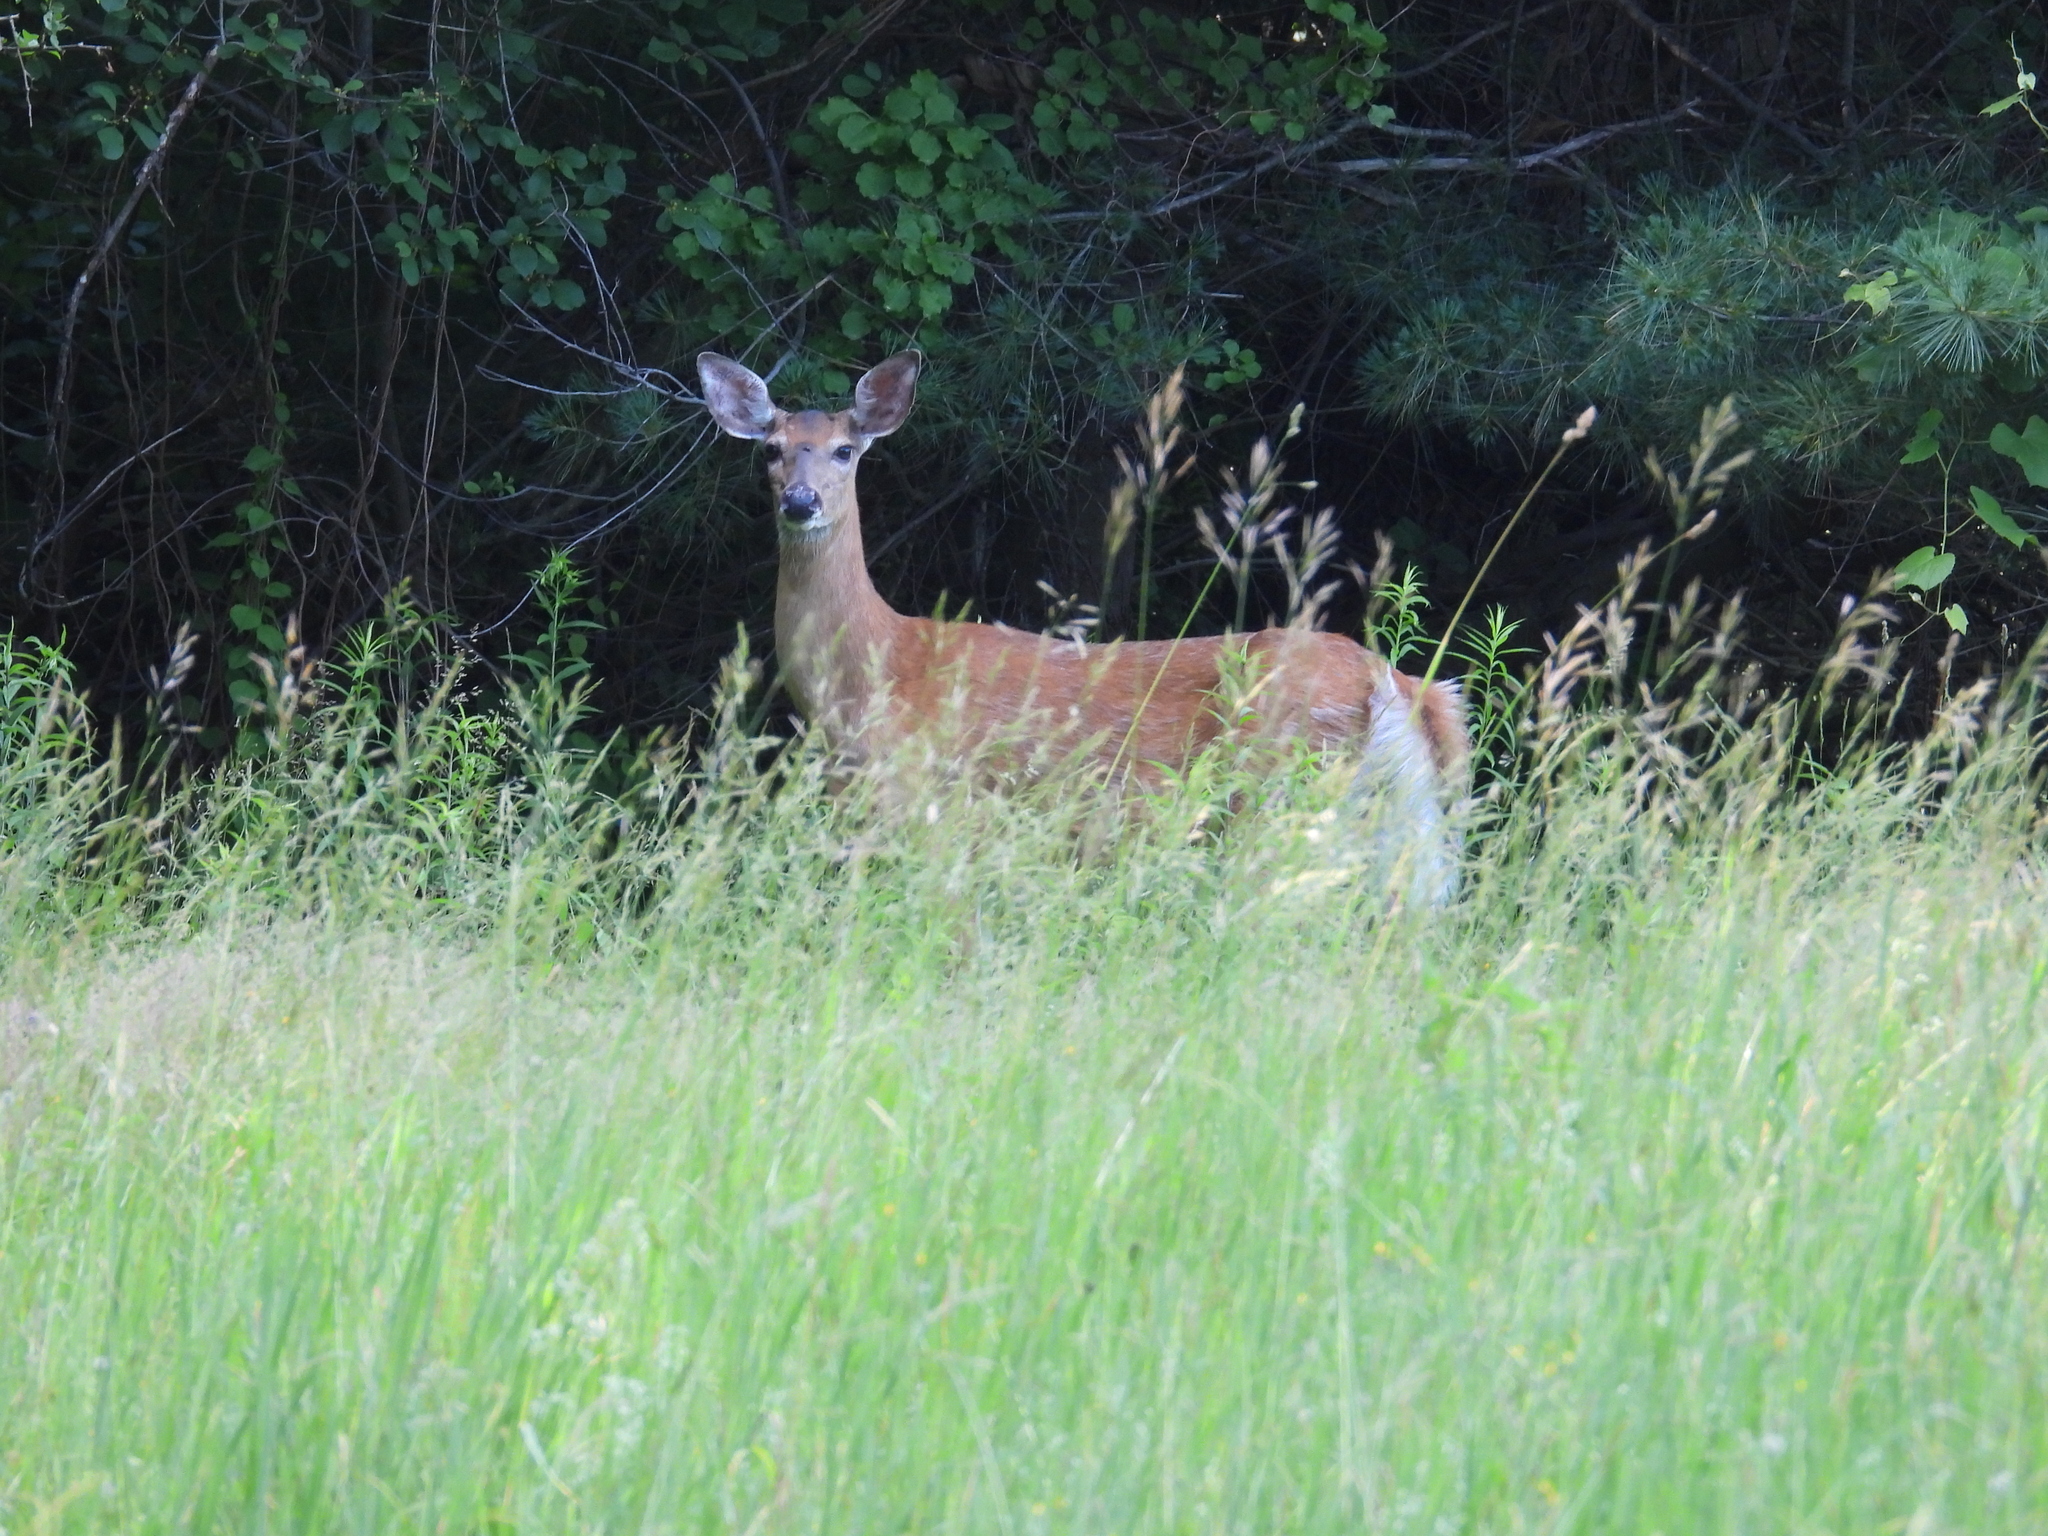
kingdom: Animalia
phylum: Chordata
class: Mammalia
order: Artiodactyla
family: Cervidae
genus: Odocoileus
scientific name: Odocoileus virginianus
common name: White-tailed deer
